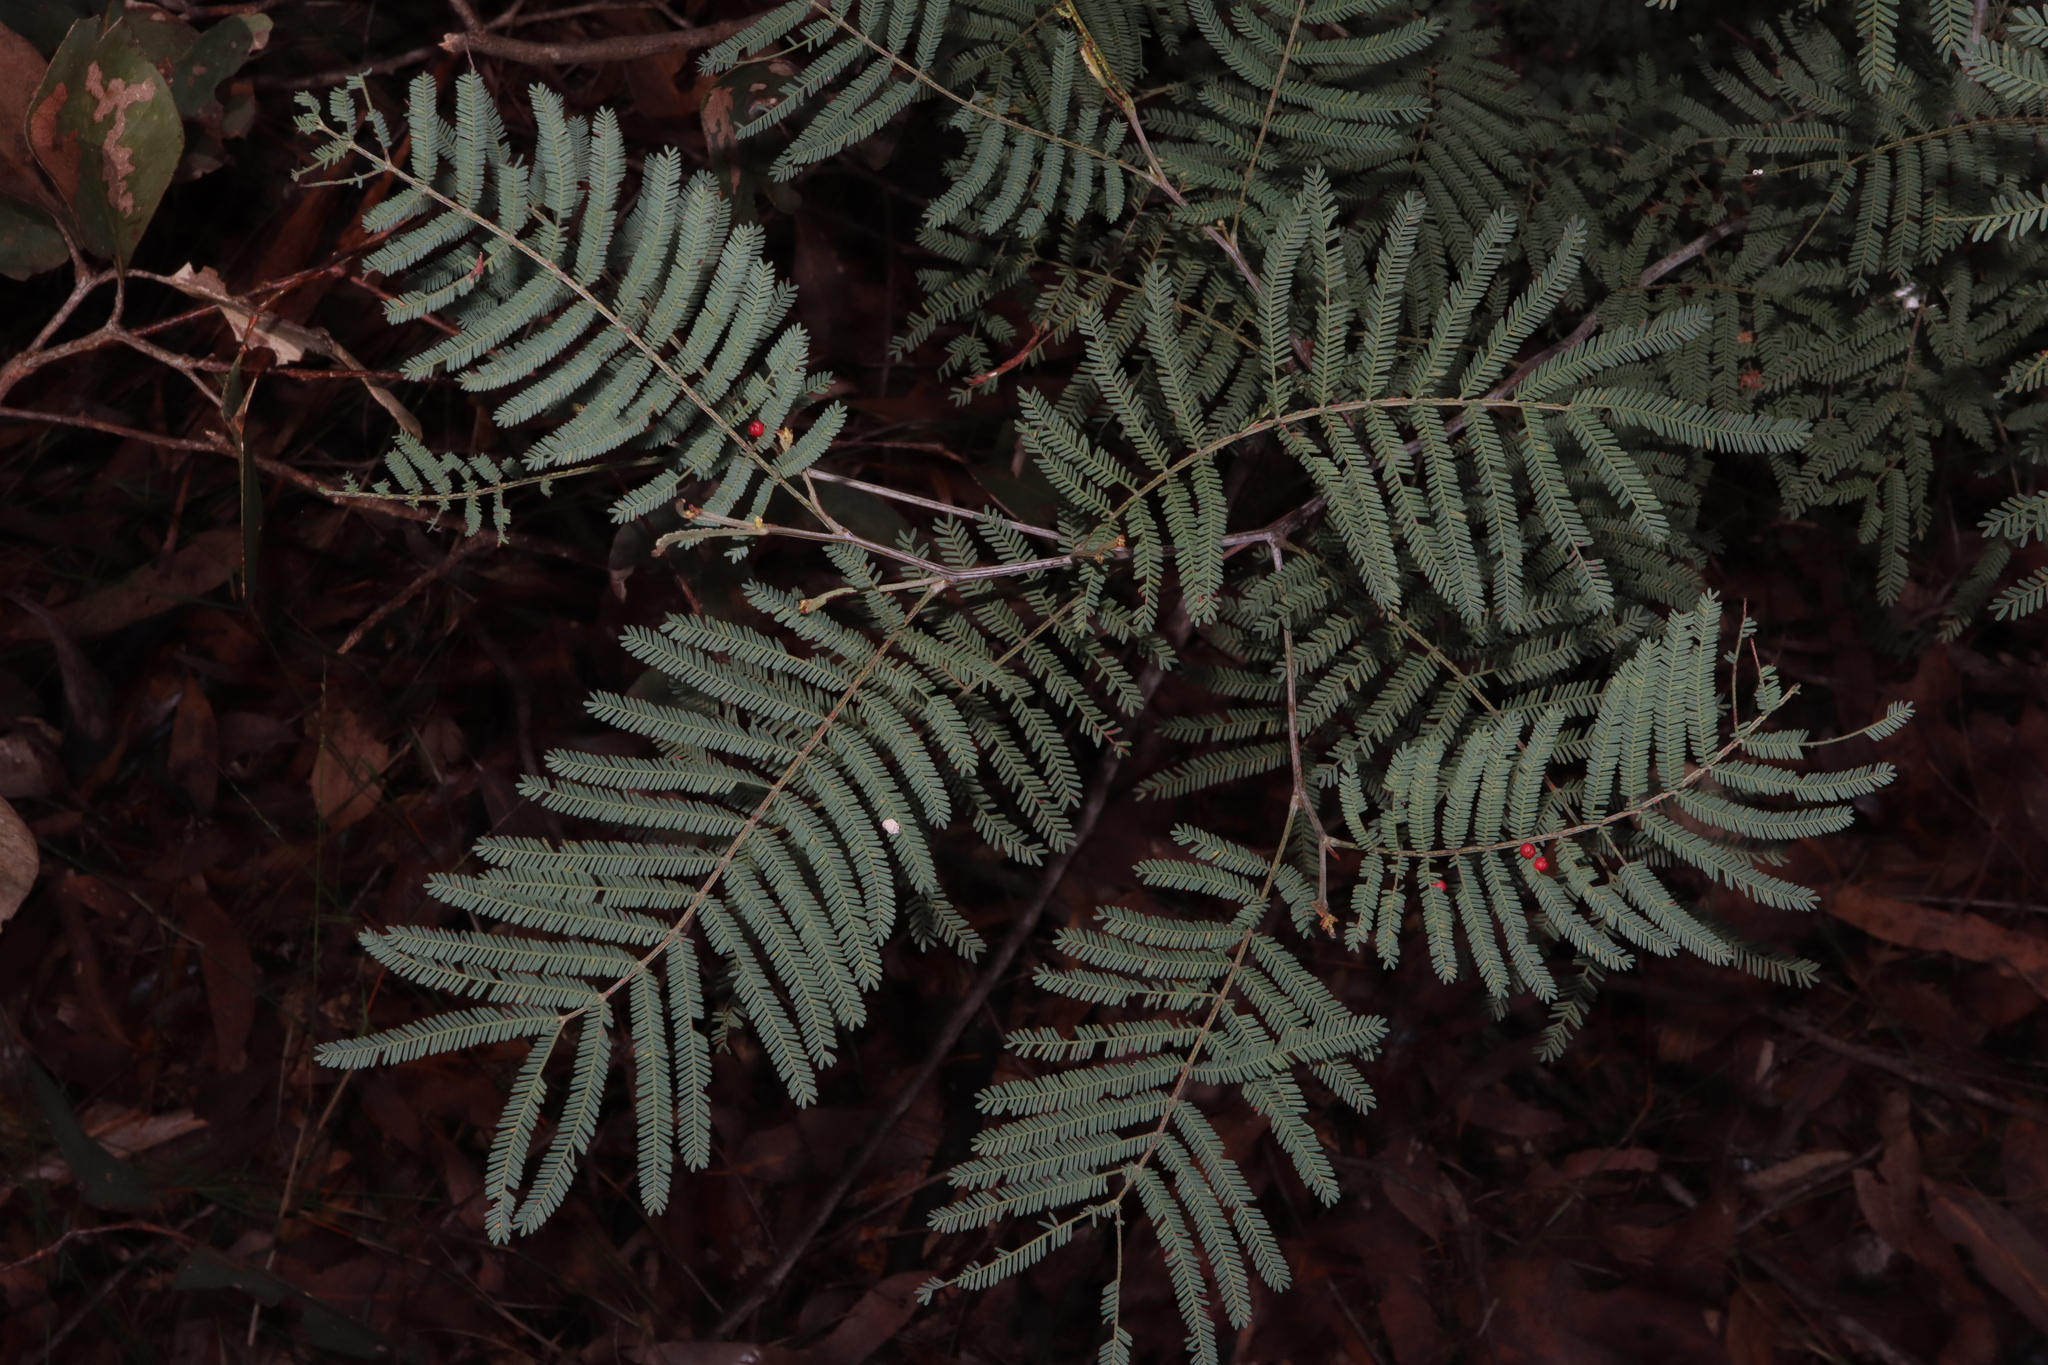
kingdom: Plantae
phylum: Tracheophyta
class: Magnoliopsida
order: Fabales
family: Fabaceae
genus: Acacia
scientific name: Acacia parvipinnula
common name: Silver-stem wattle
